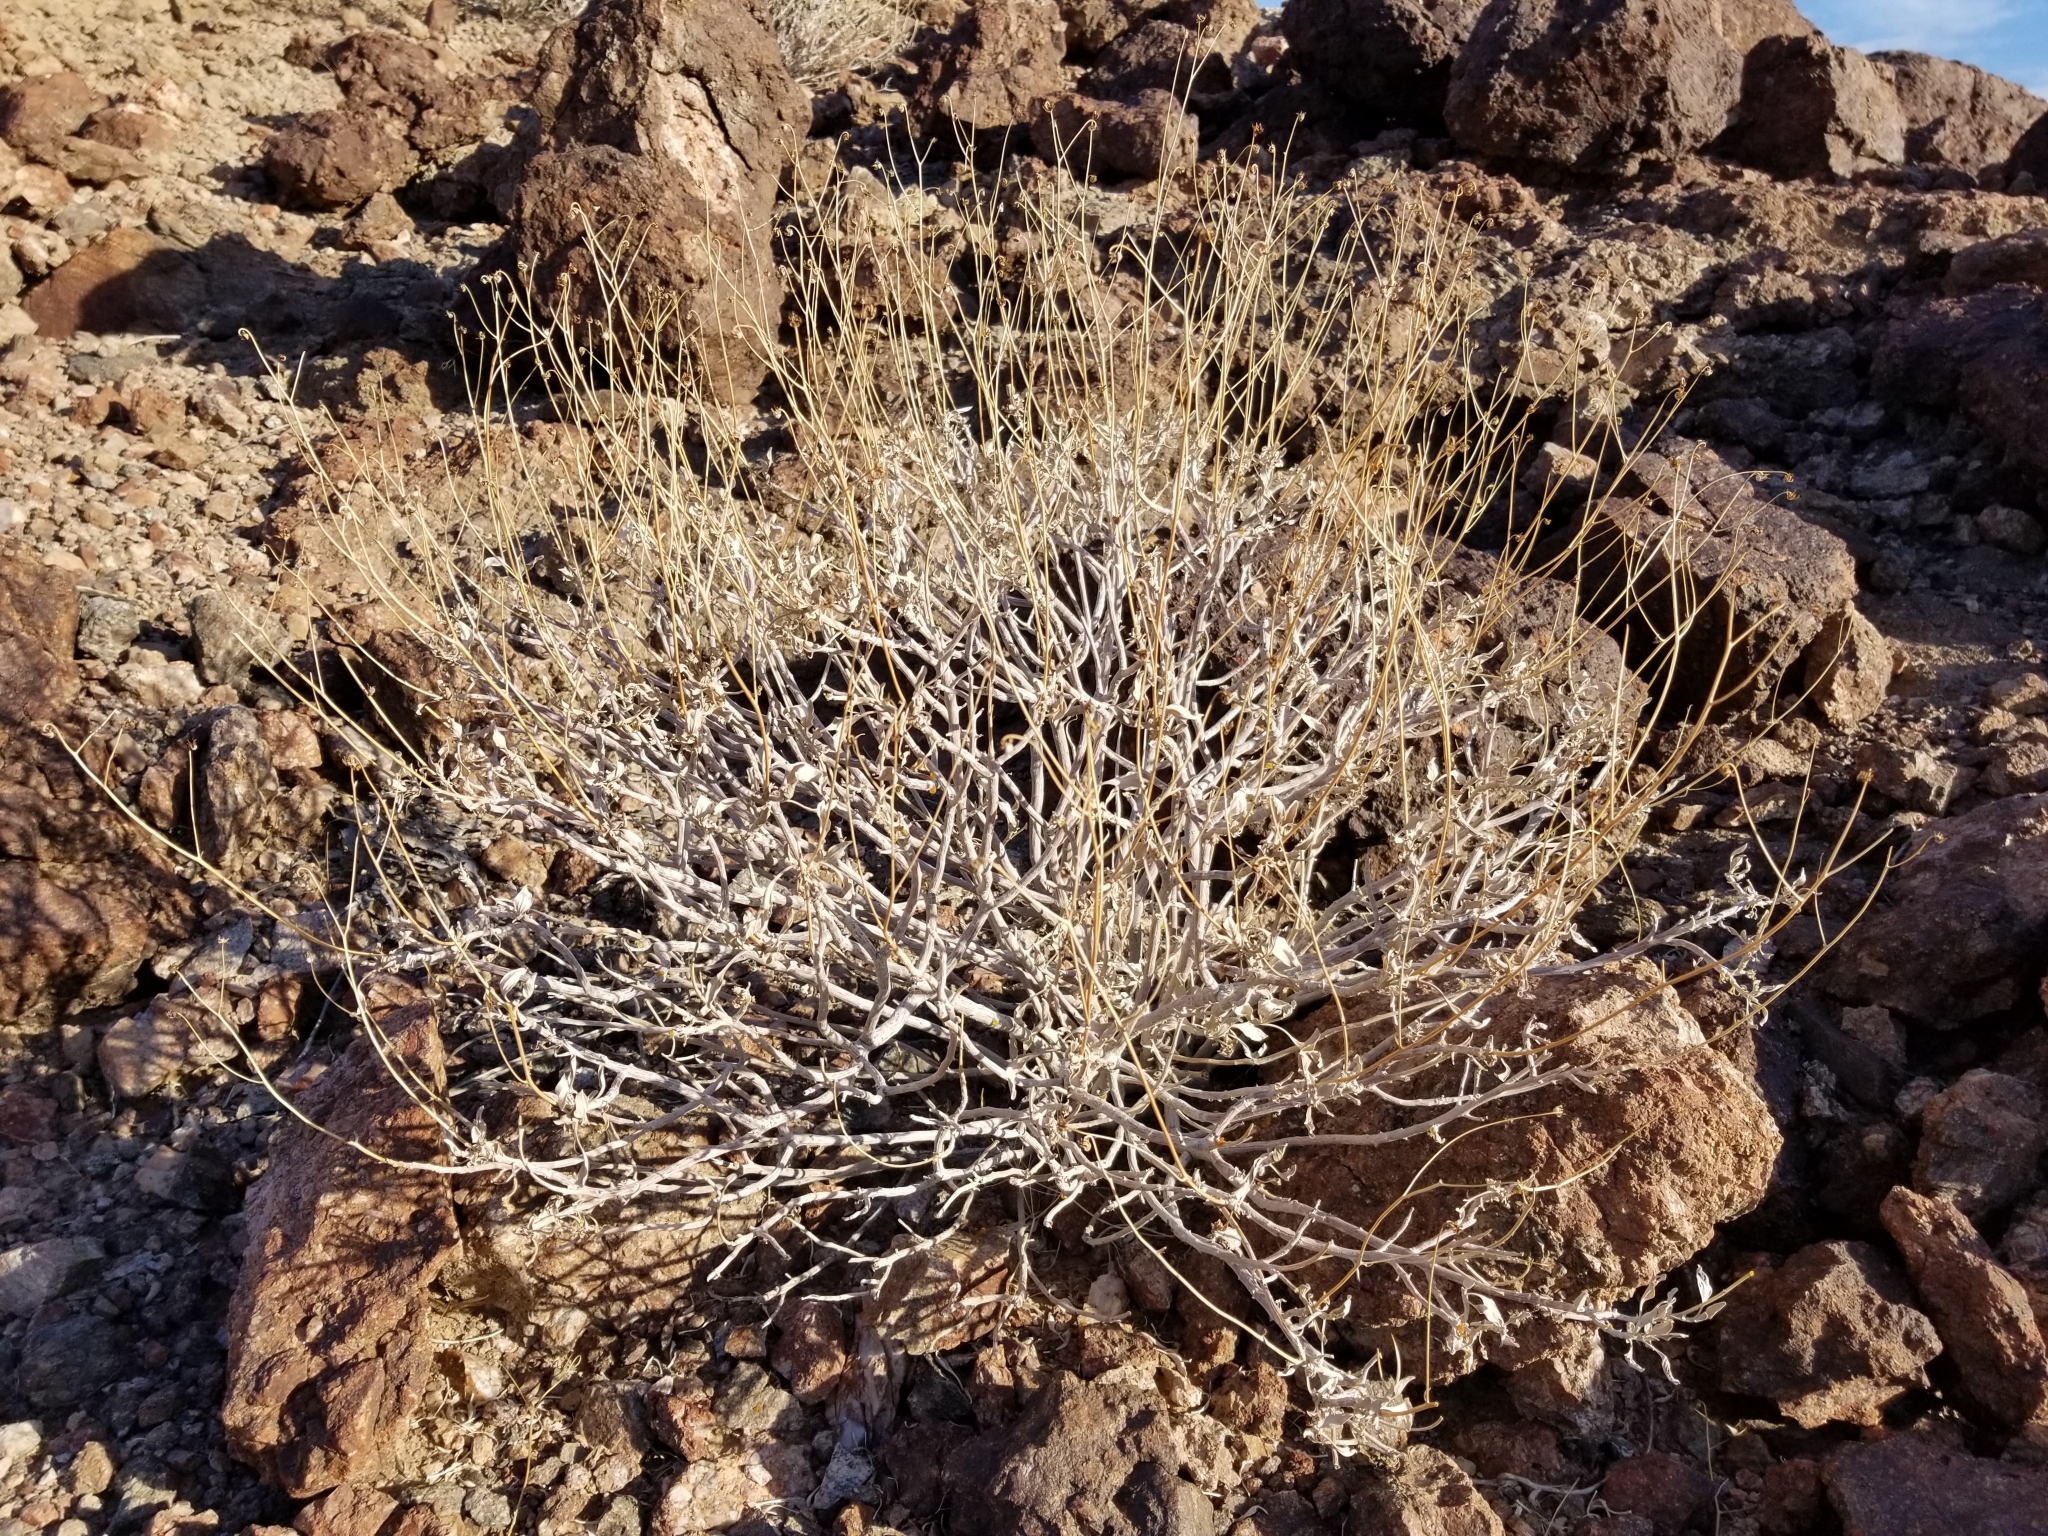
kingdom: Plantae
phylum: Tracheophyta
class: Magnoliopsida
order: Asterales
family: Asteraceae
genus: Encelia
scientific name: Encelia farinosa
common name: Brittlebush
